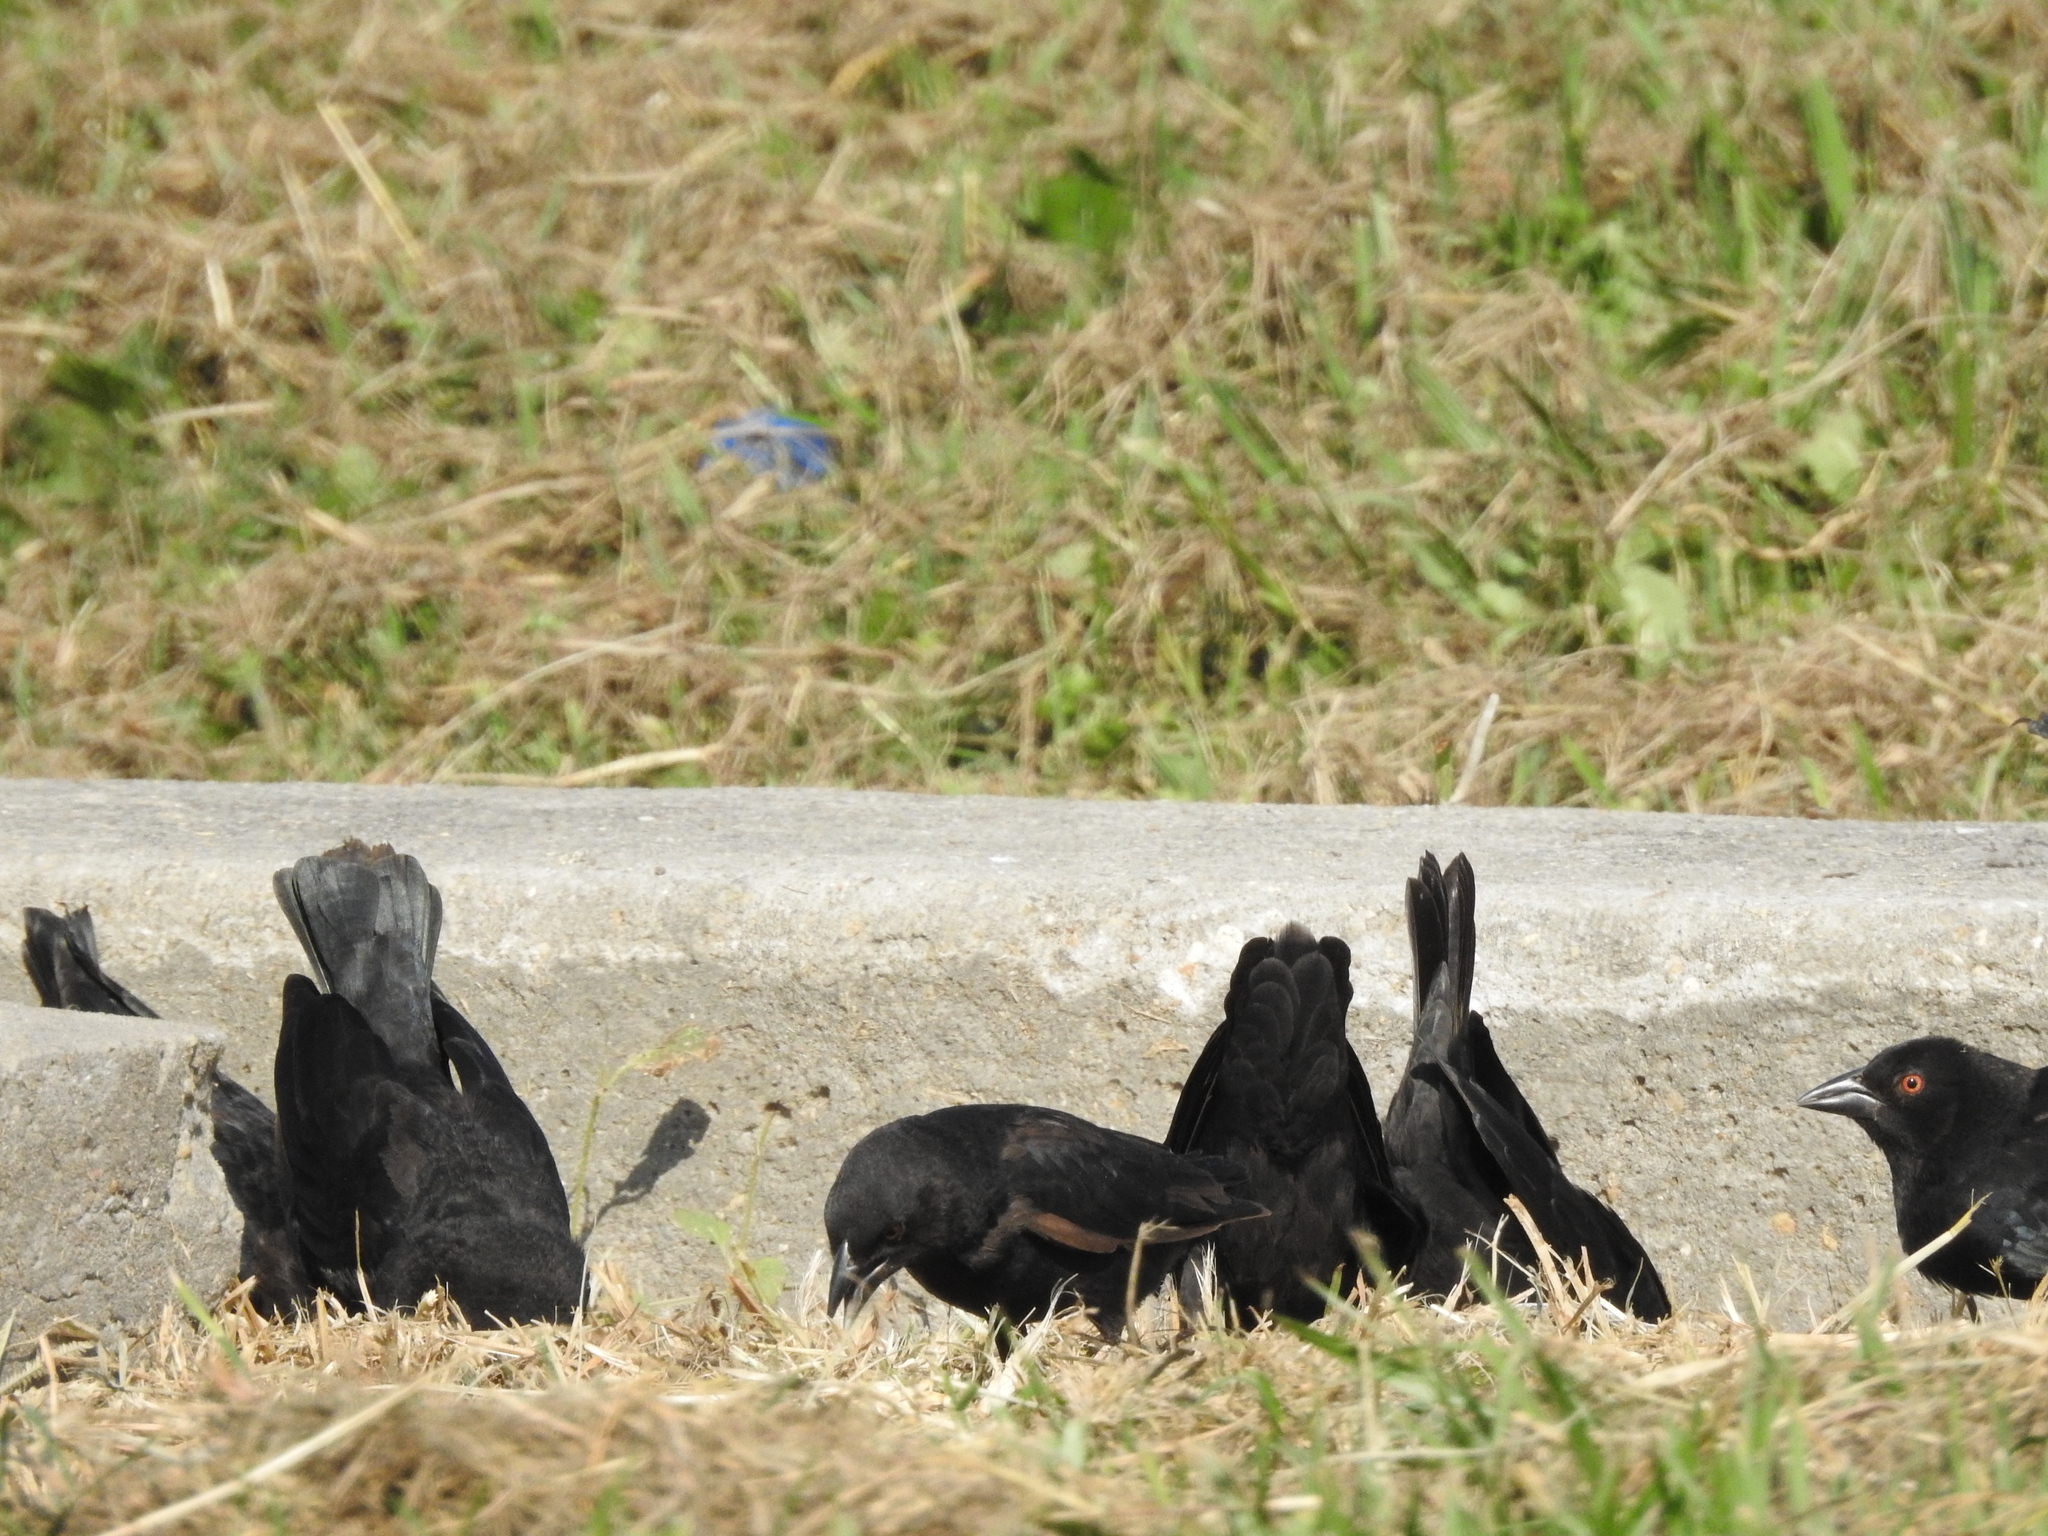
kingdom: Animalia
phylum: Chordata
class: Aves
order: Passeriformes
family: Icteridae
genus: Molothrus
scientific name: Molothrus aeneus
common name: Bronzed cowbird
